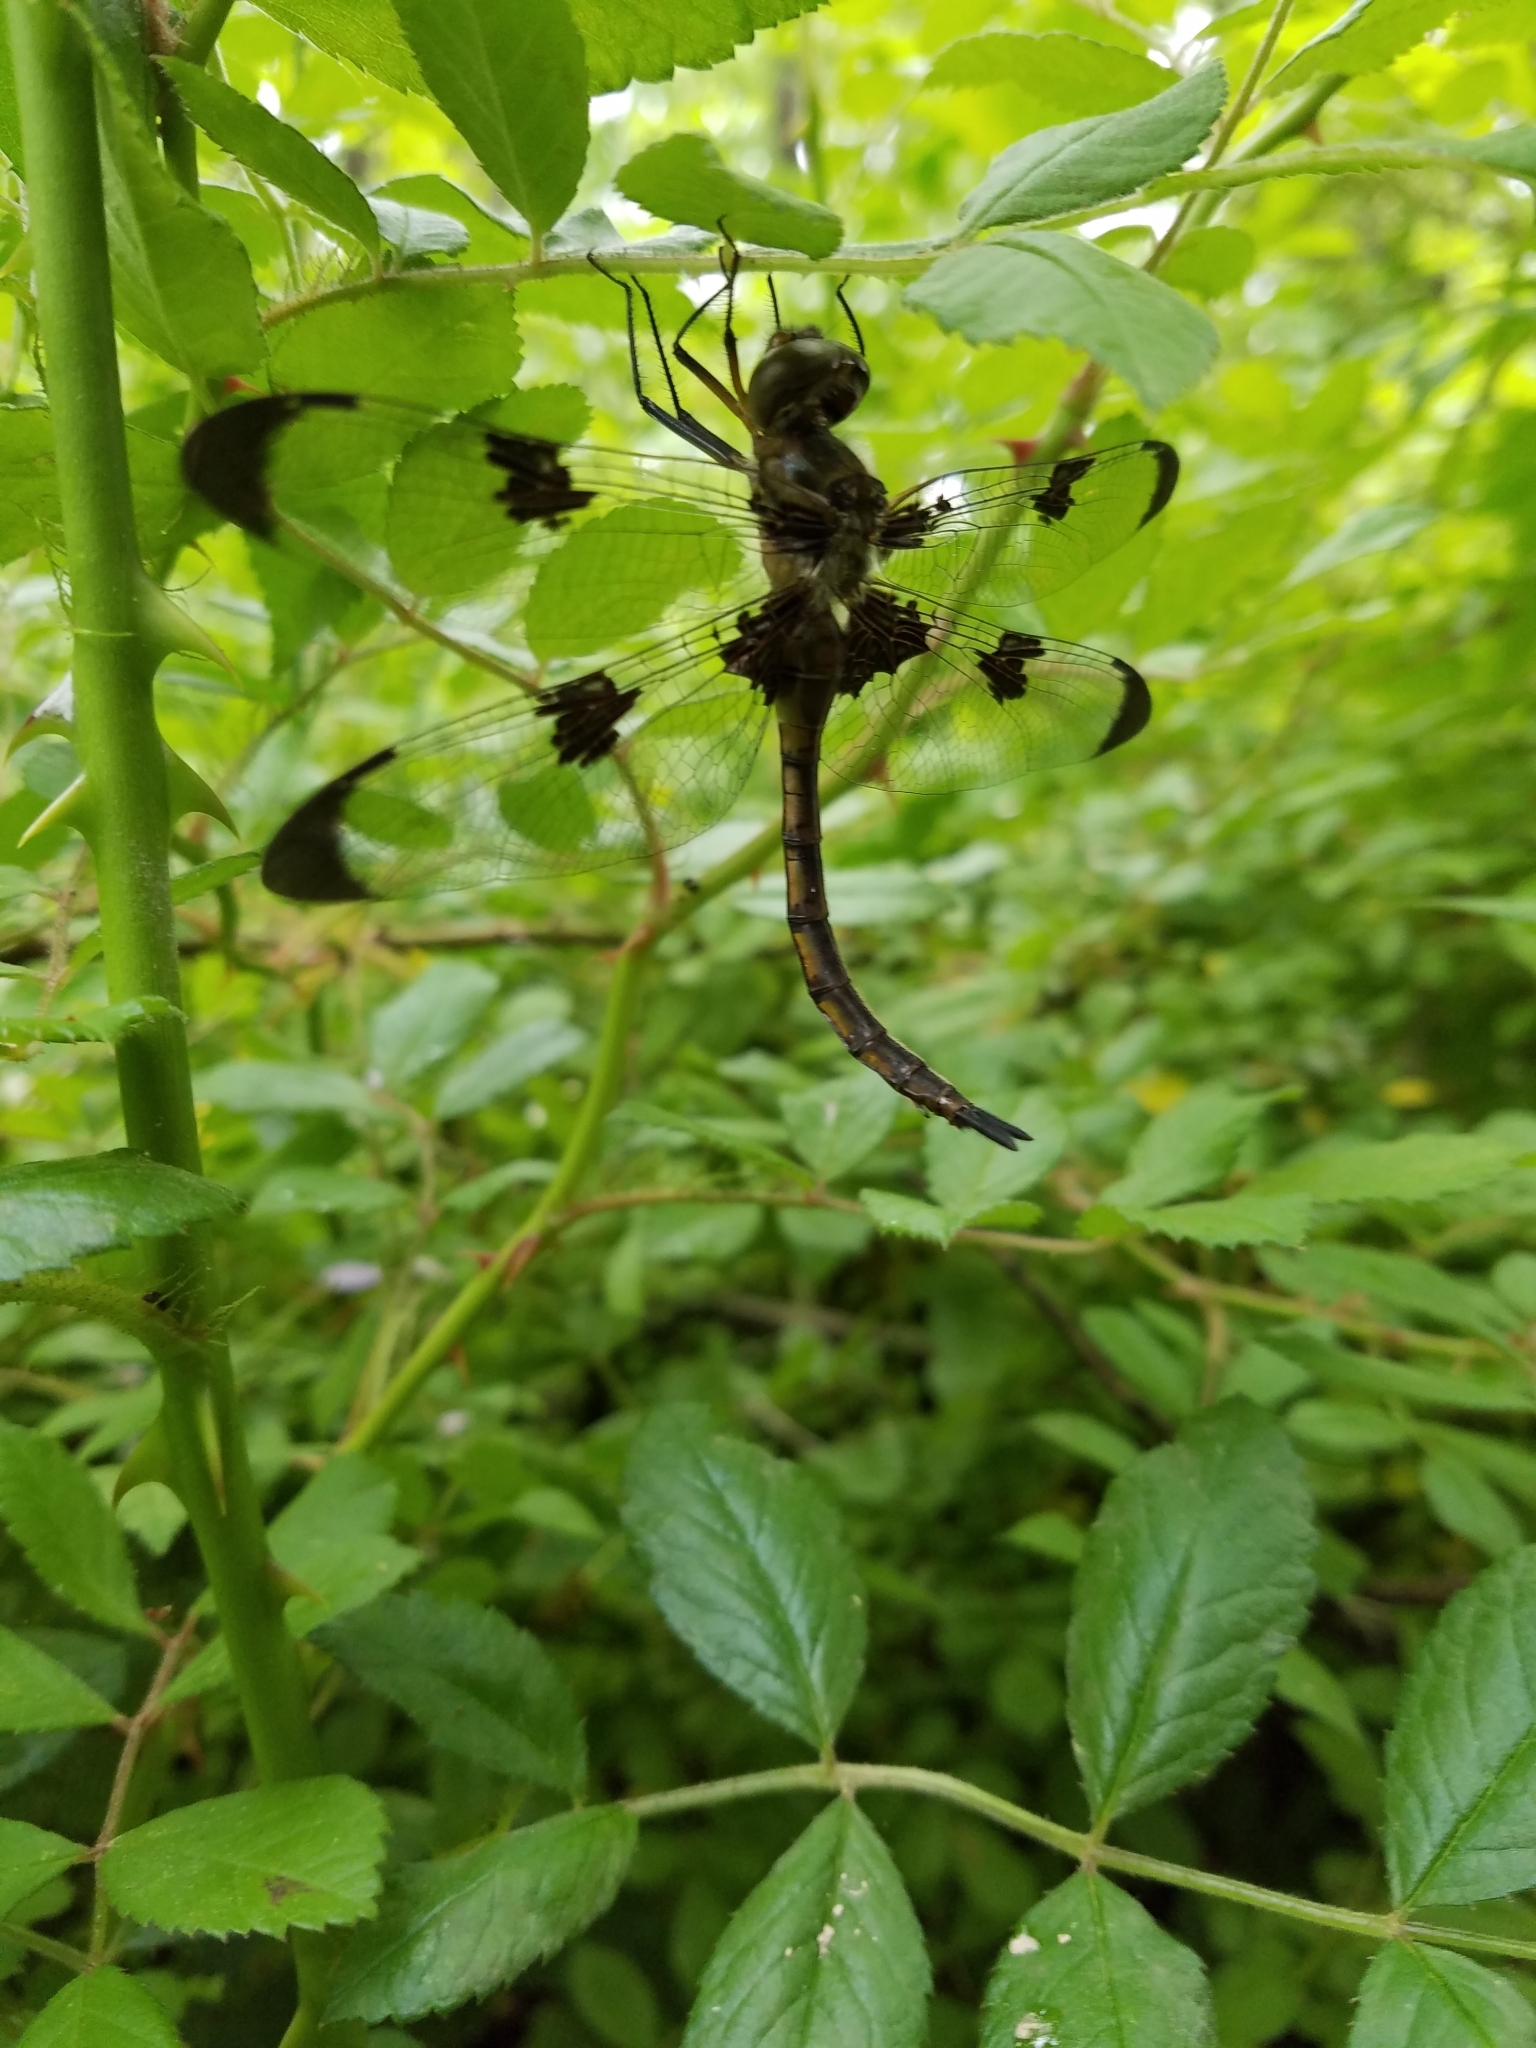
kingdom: Animalia
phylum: Arthropoda
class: Insecta
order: Odonata
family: Corduliidae
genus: Epitheca
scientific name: Epitheca princeps
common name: Prince baskettail
